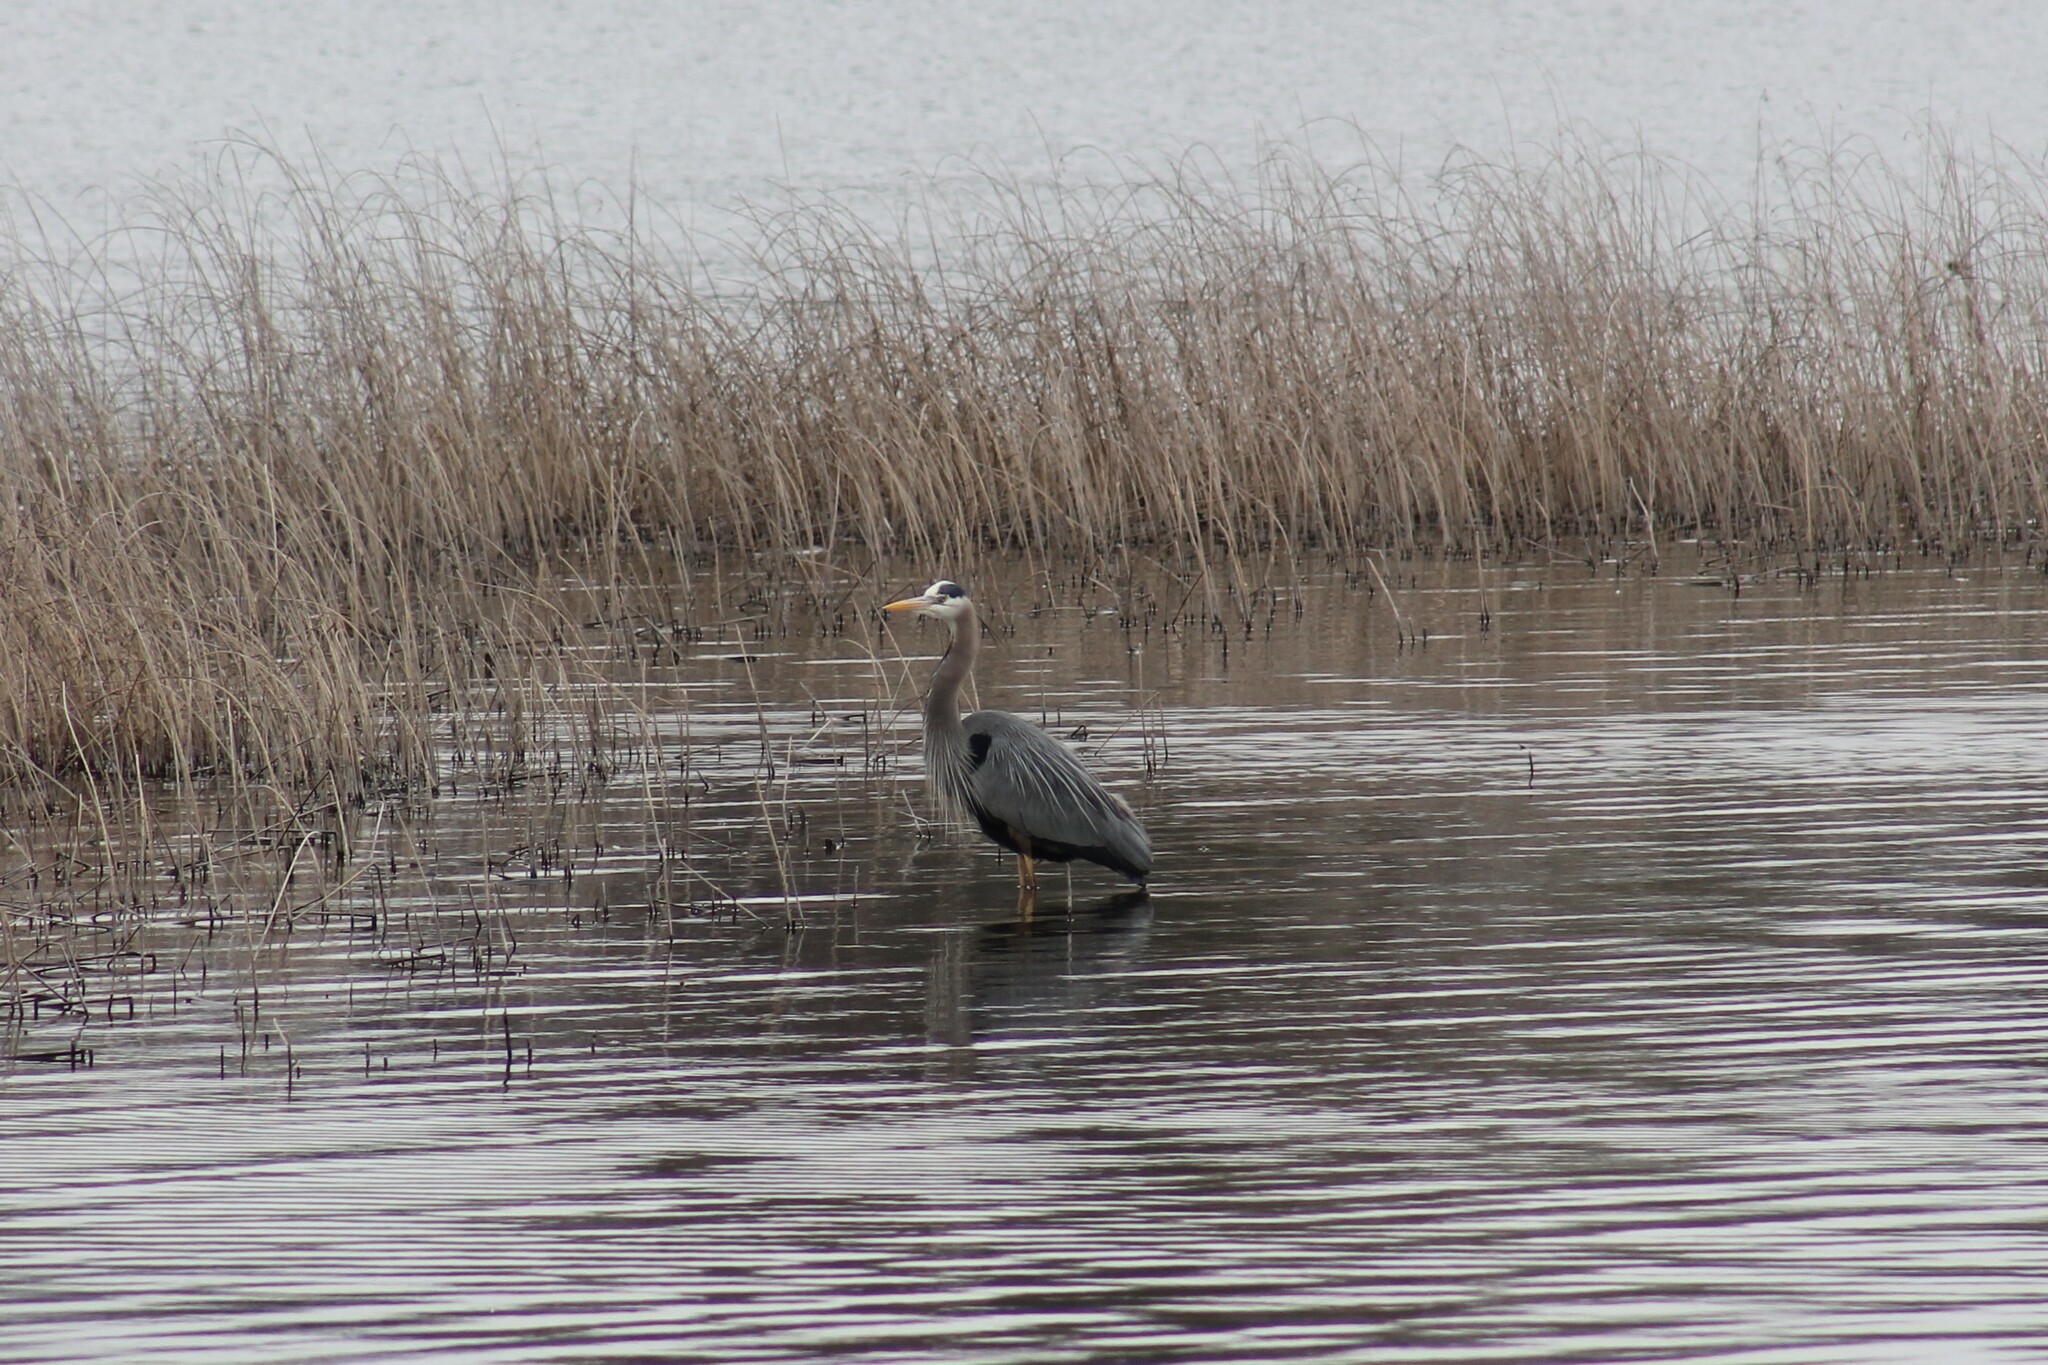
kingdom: Animalia
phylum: Chordata
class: Aves
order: Pelecaniformes
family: Ardeidae
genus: Ardea
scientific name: Ardea herodias
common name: Great blue heron
